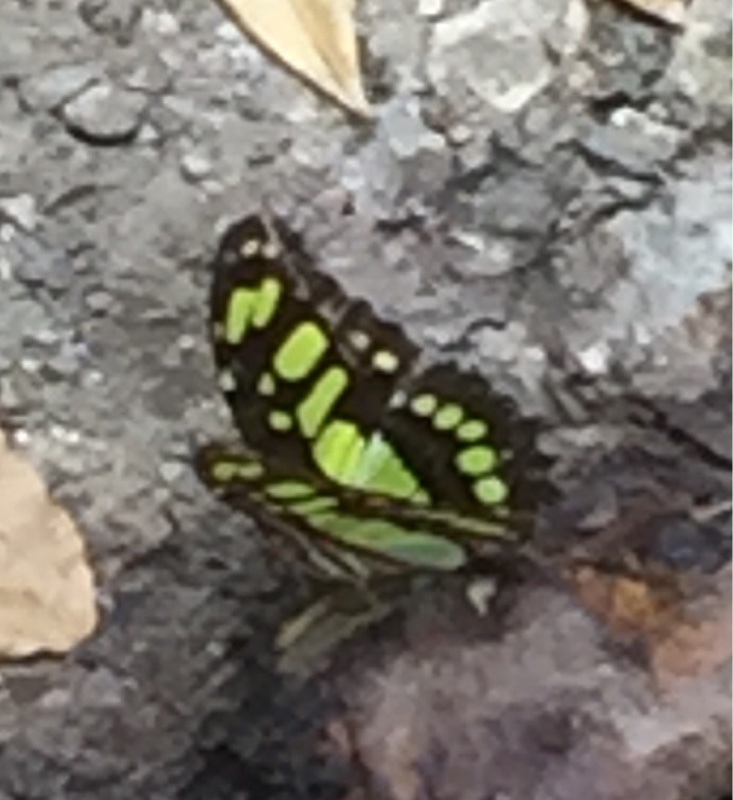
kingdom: Animalia
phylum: Arthropoda
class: Insecta
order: Lepidoptera
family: Nymphalidae
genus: Siproeta
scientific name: Siproeta stelenes
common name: Malachite
